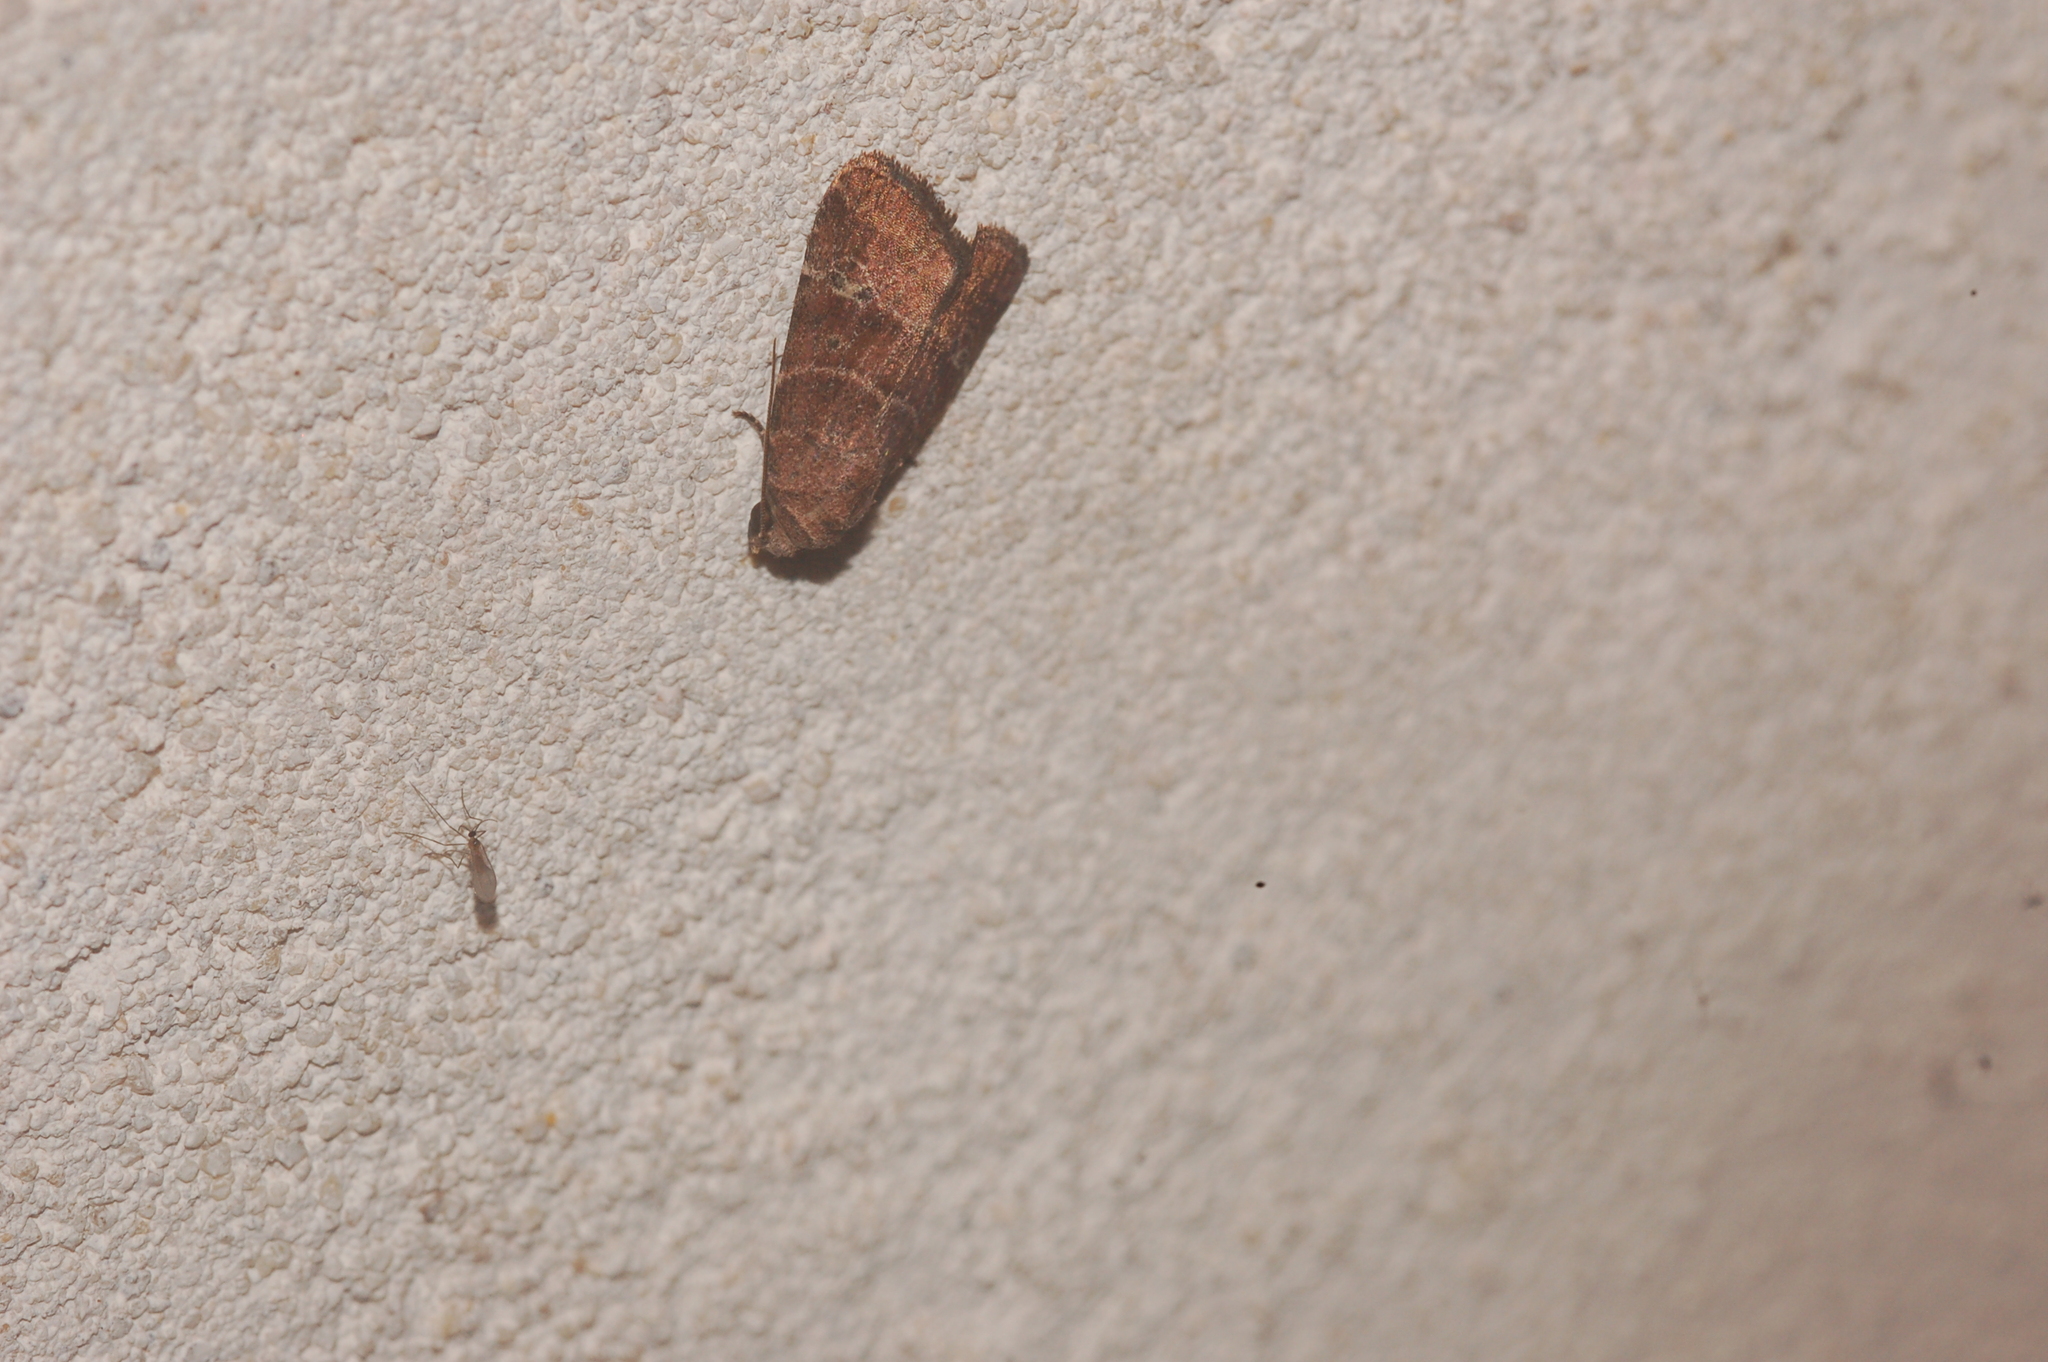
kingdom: Animalia
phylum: Arthropoda
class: Insecta
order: Lepidoptera
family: Noctuidae
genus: Elaphria
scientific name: Elaphria grata
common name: Grateful midget moth
